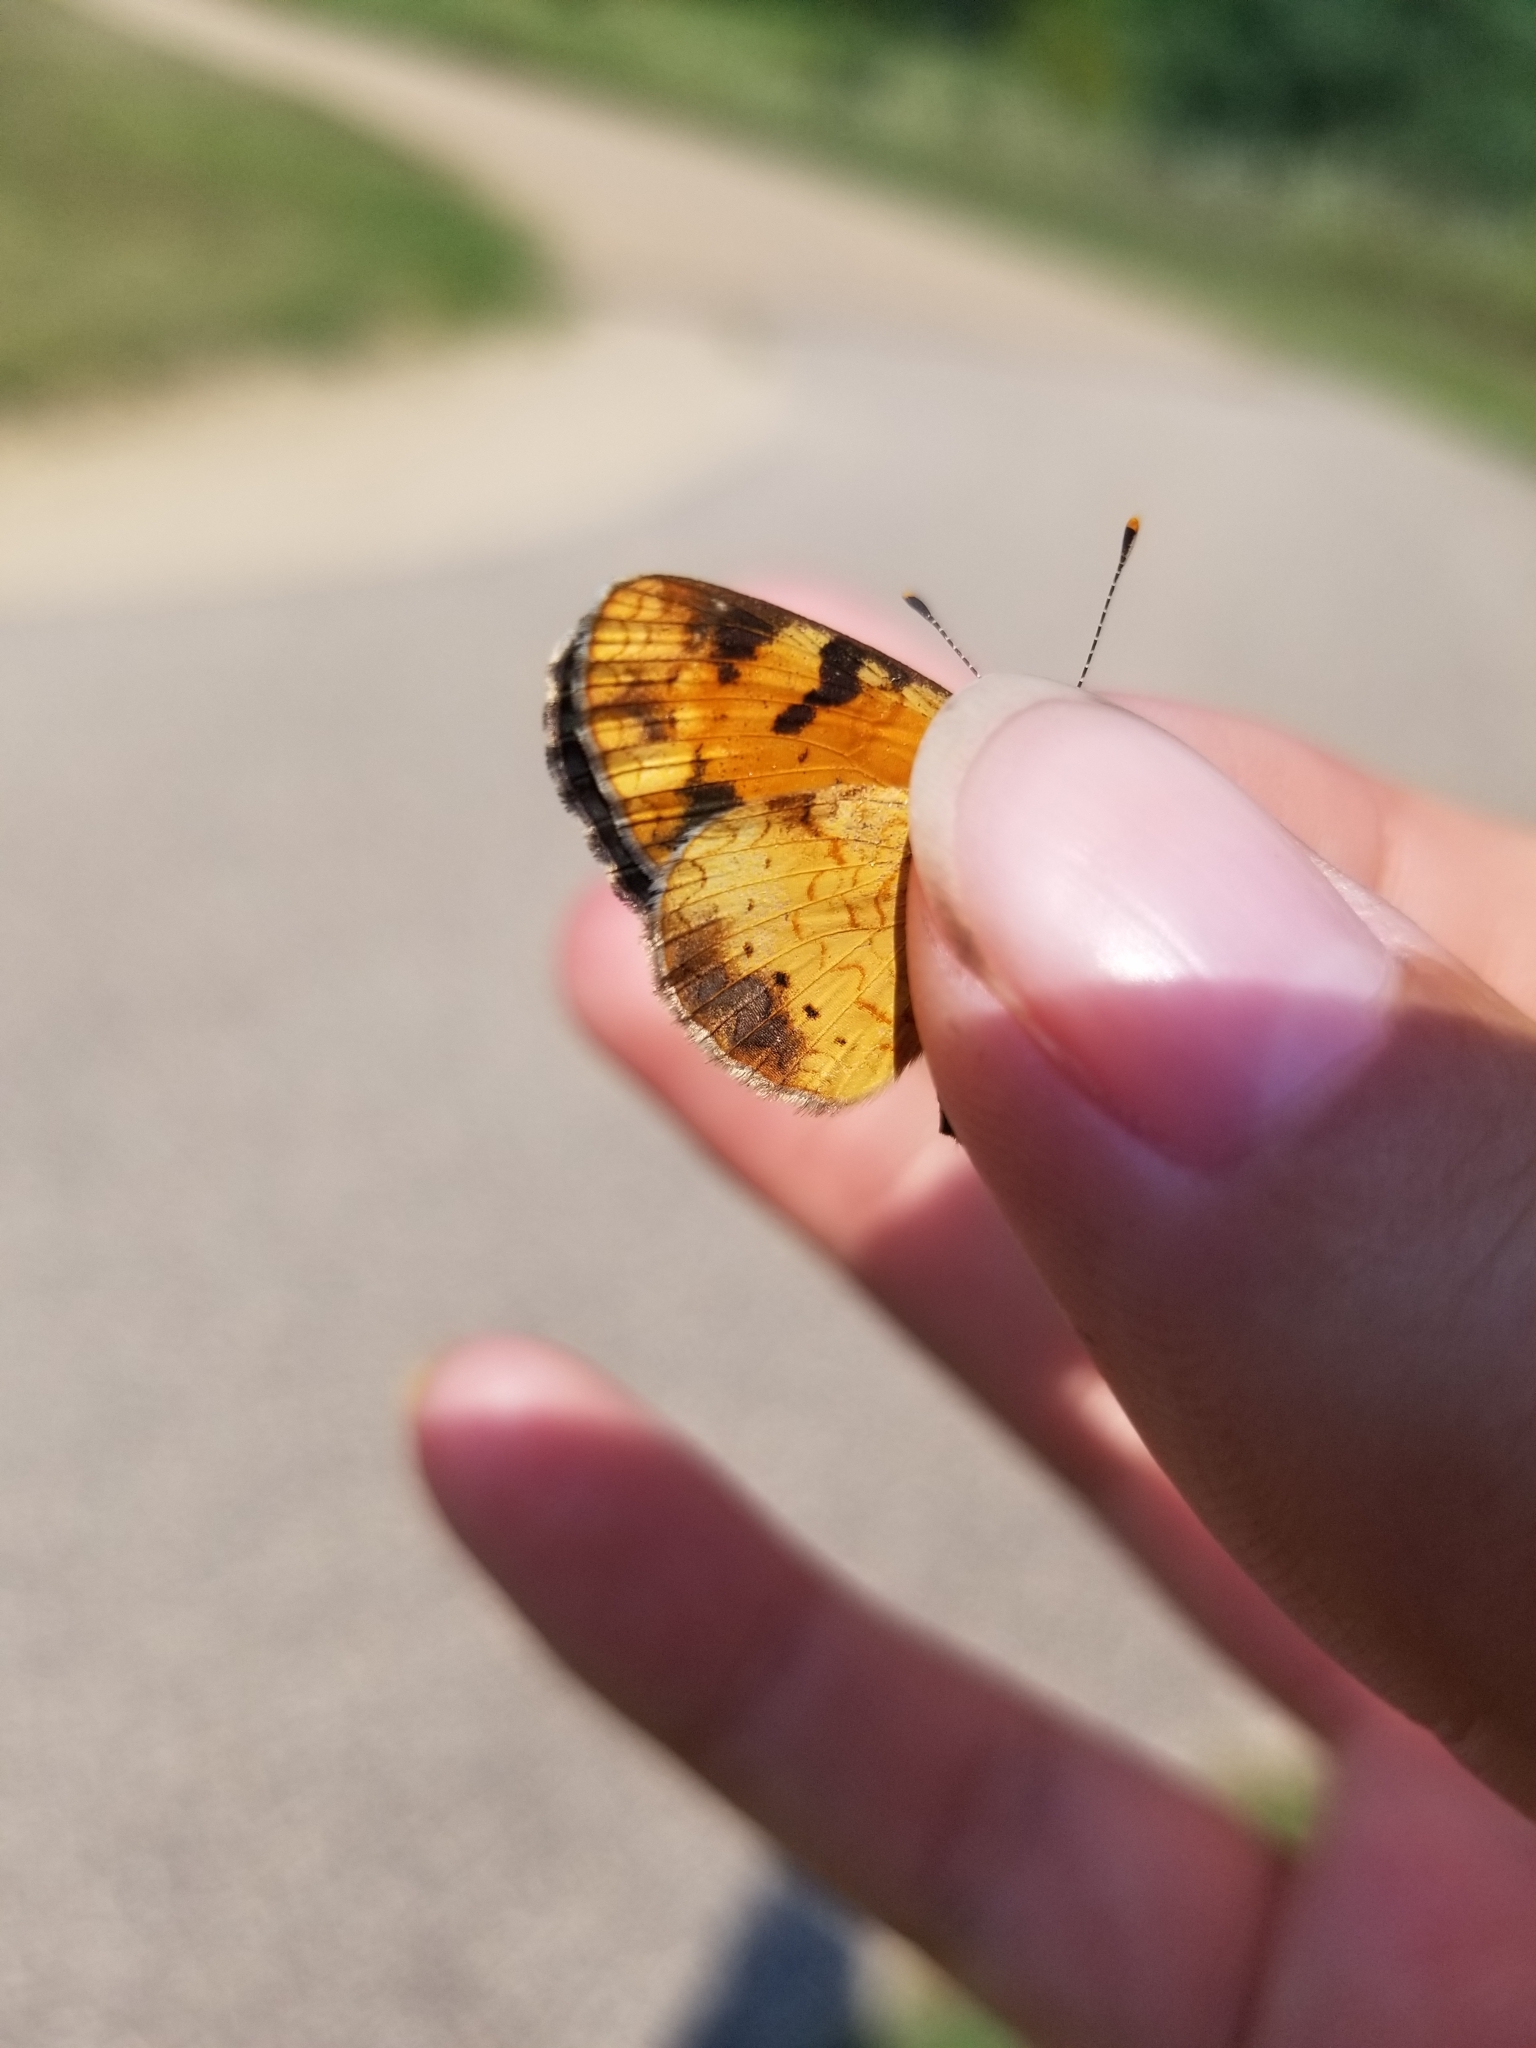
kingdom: Animalia
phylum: Arthropoda
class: Insecta
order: Lepidoptera
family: Nymphalidae
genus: Phyciodes
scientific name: Phyciodes tharos
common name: Pearl crescent
